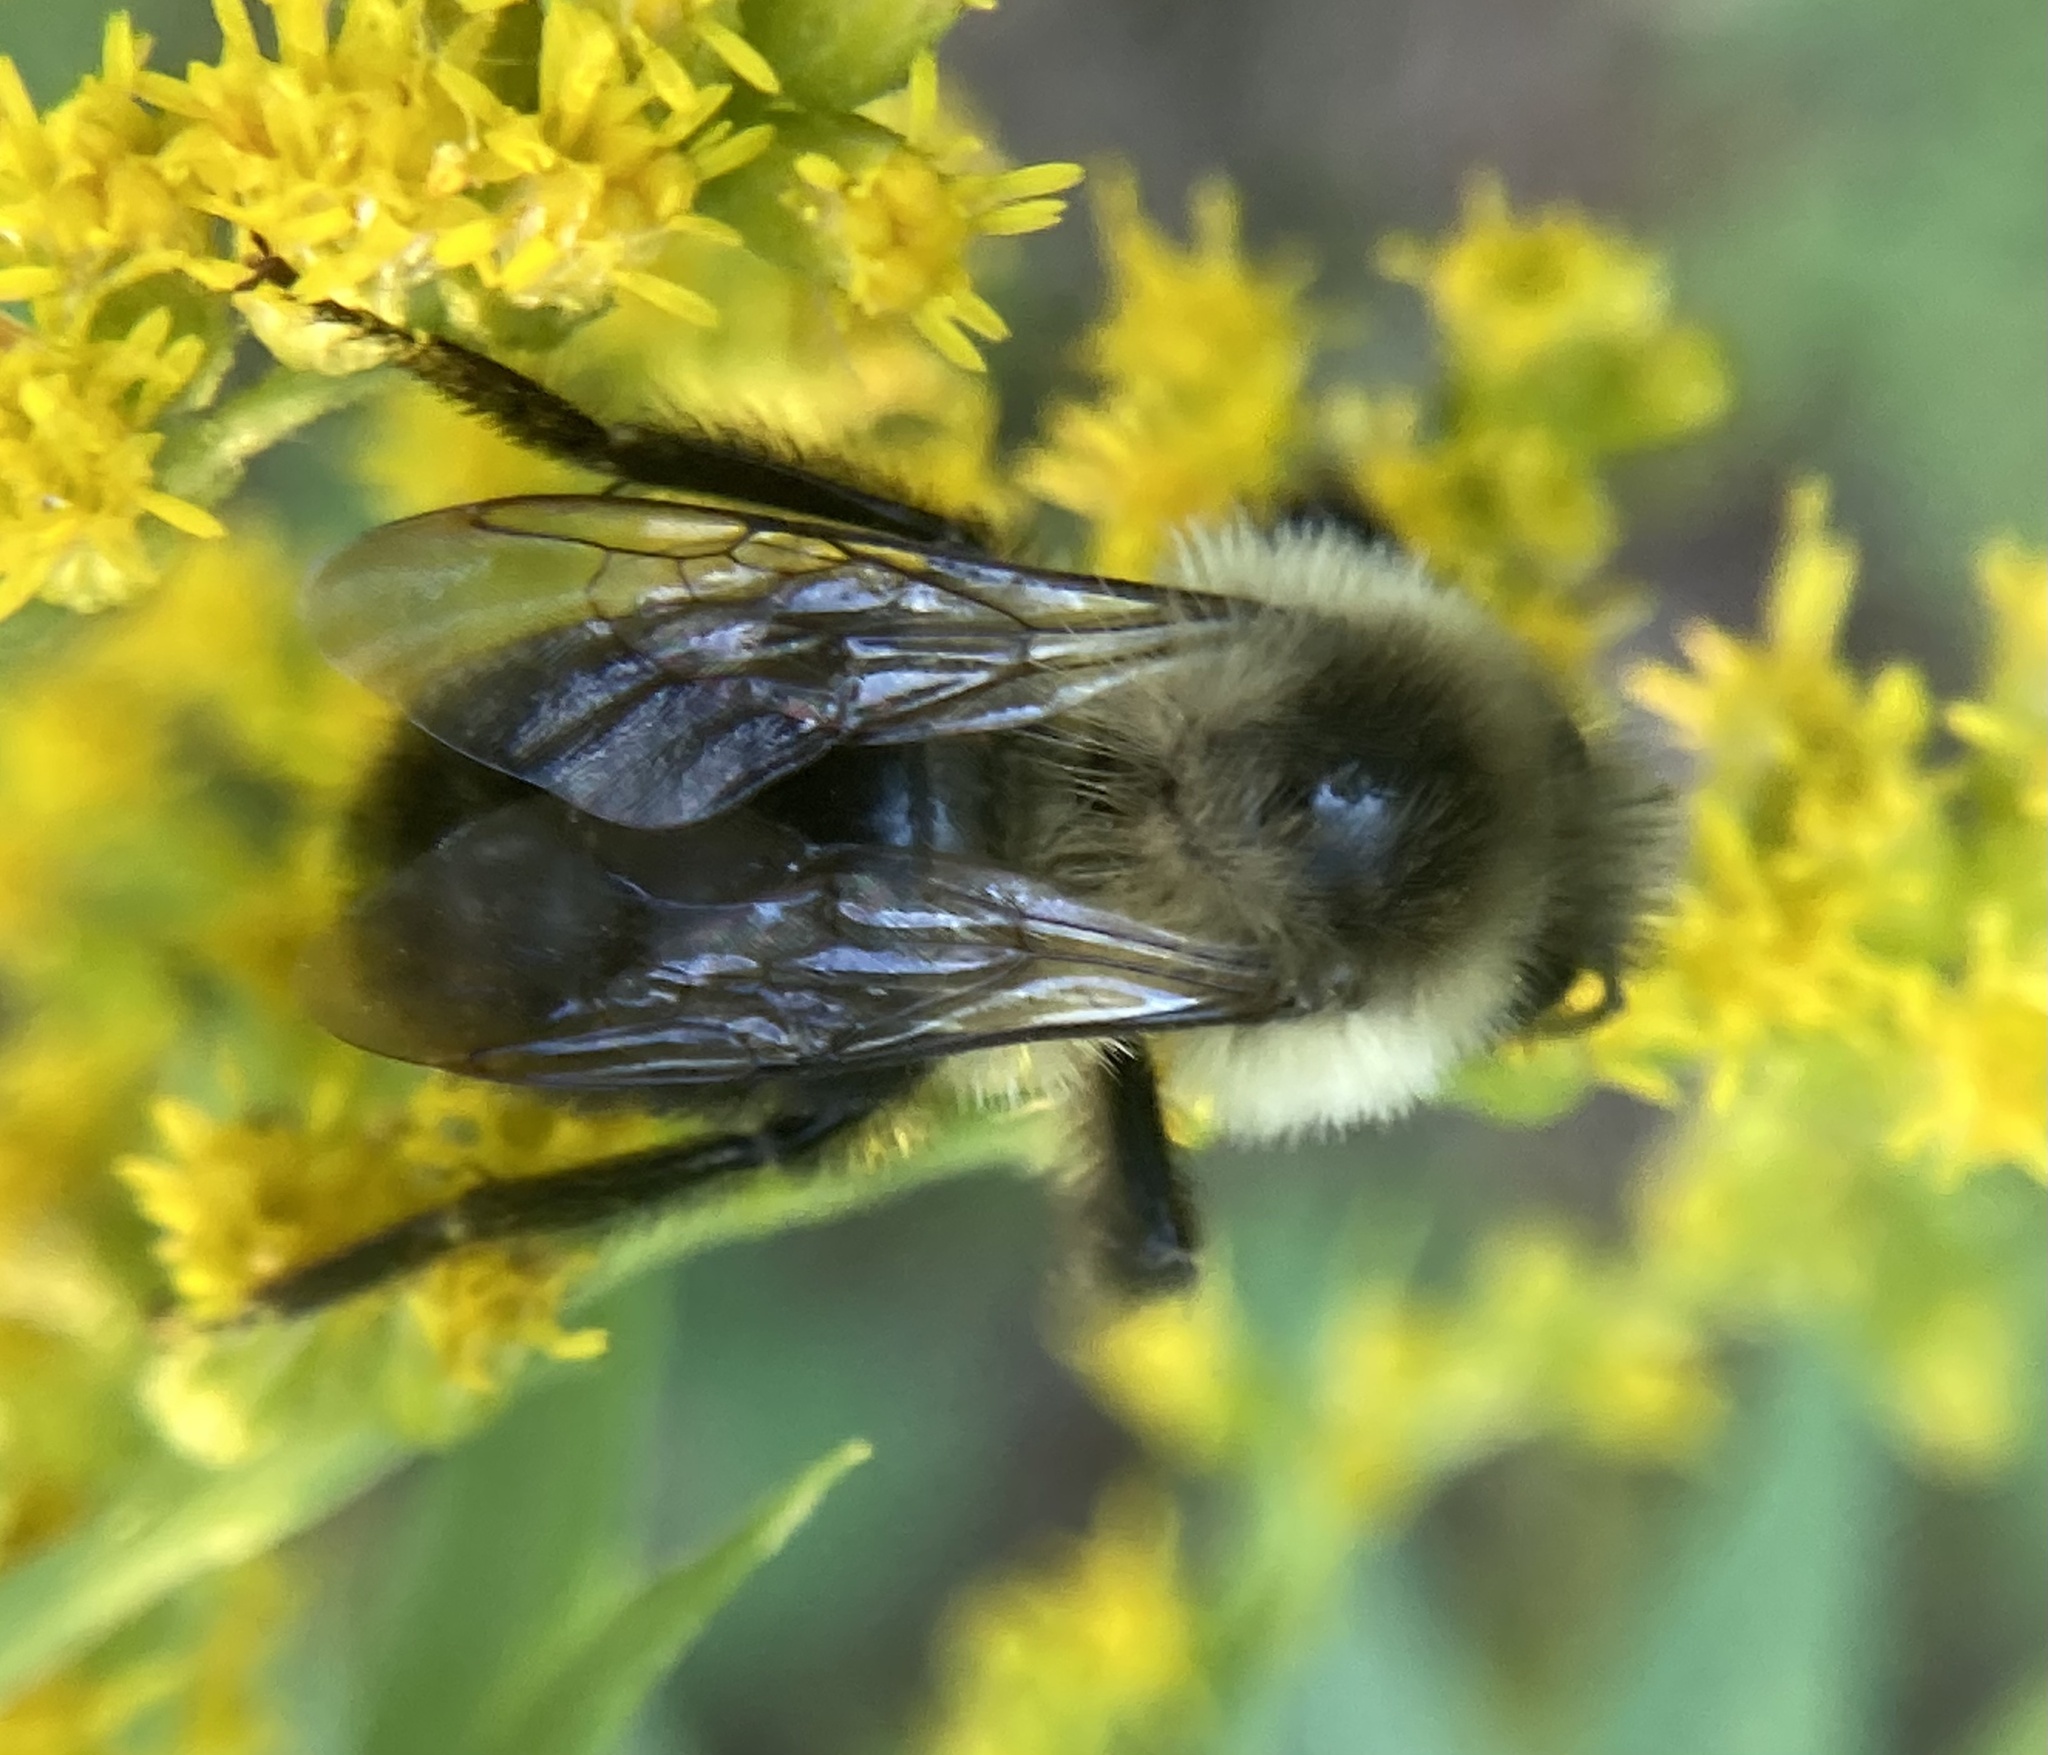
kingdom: Animalia
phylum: Arthropoda
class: Insecta
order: Hymenoptera
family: Apidae
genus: Bombus
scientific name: Bombus impatiens
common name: Common eastern bumble bee
